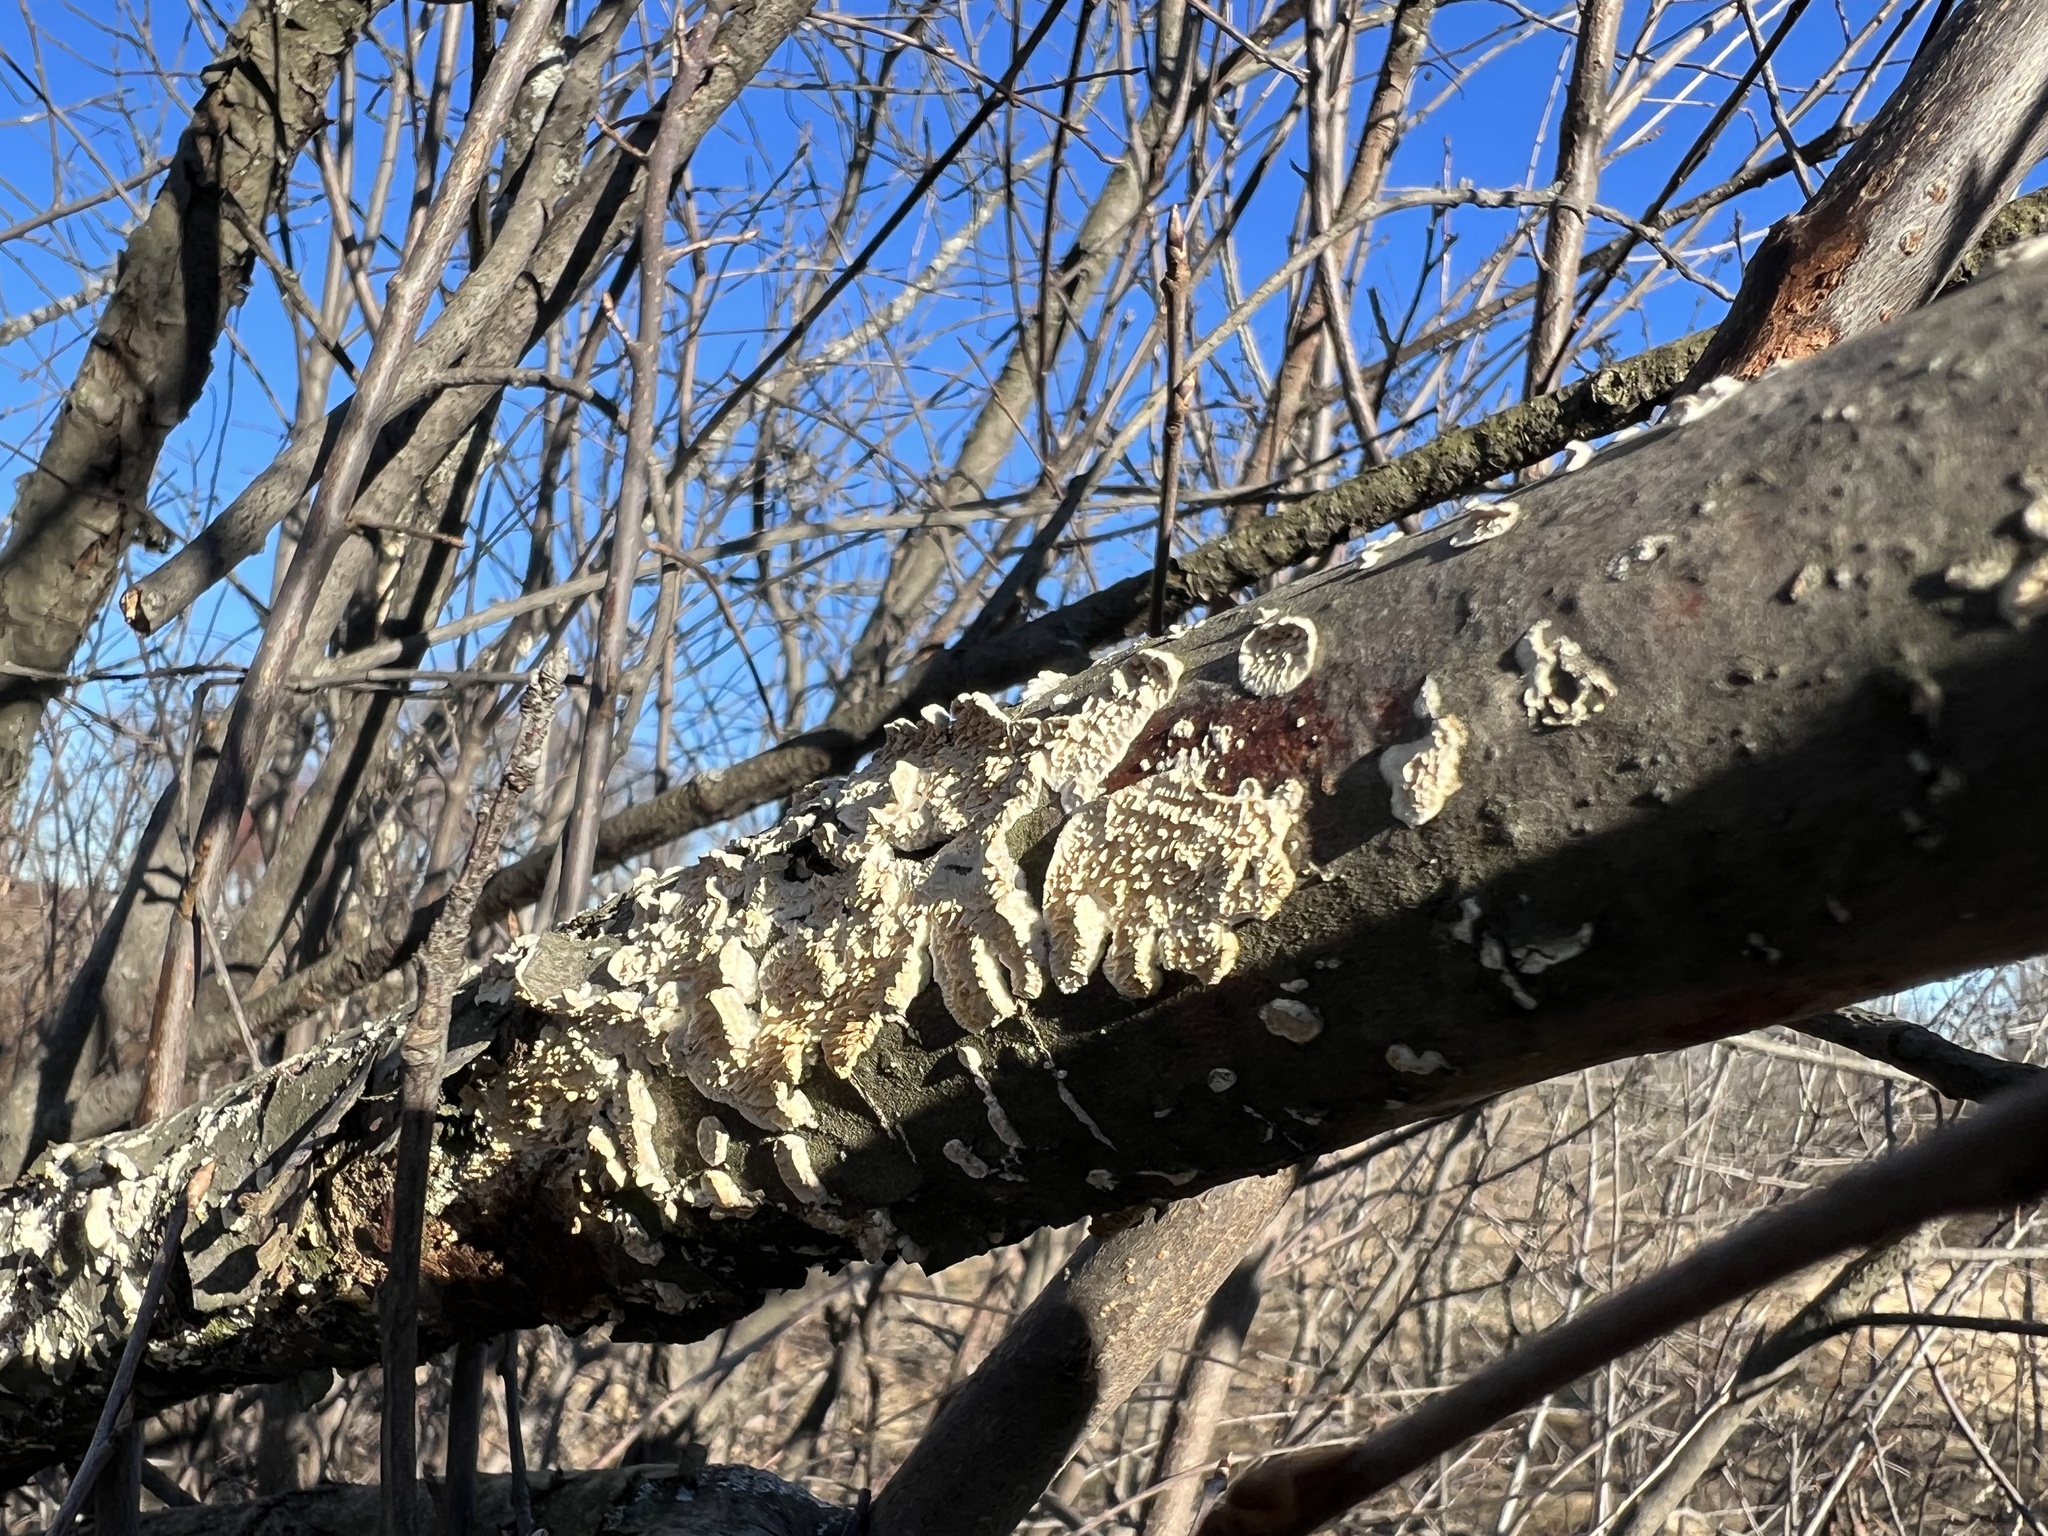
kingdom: Fungi
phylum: Basidiomycota
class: Agaricomycetes
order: Polyporales
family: Irpicaceae
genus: Irpex
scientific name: Irpex lacteus
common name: Milk-white toothed polypore
